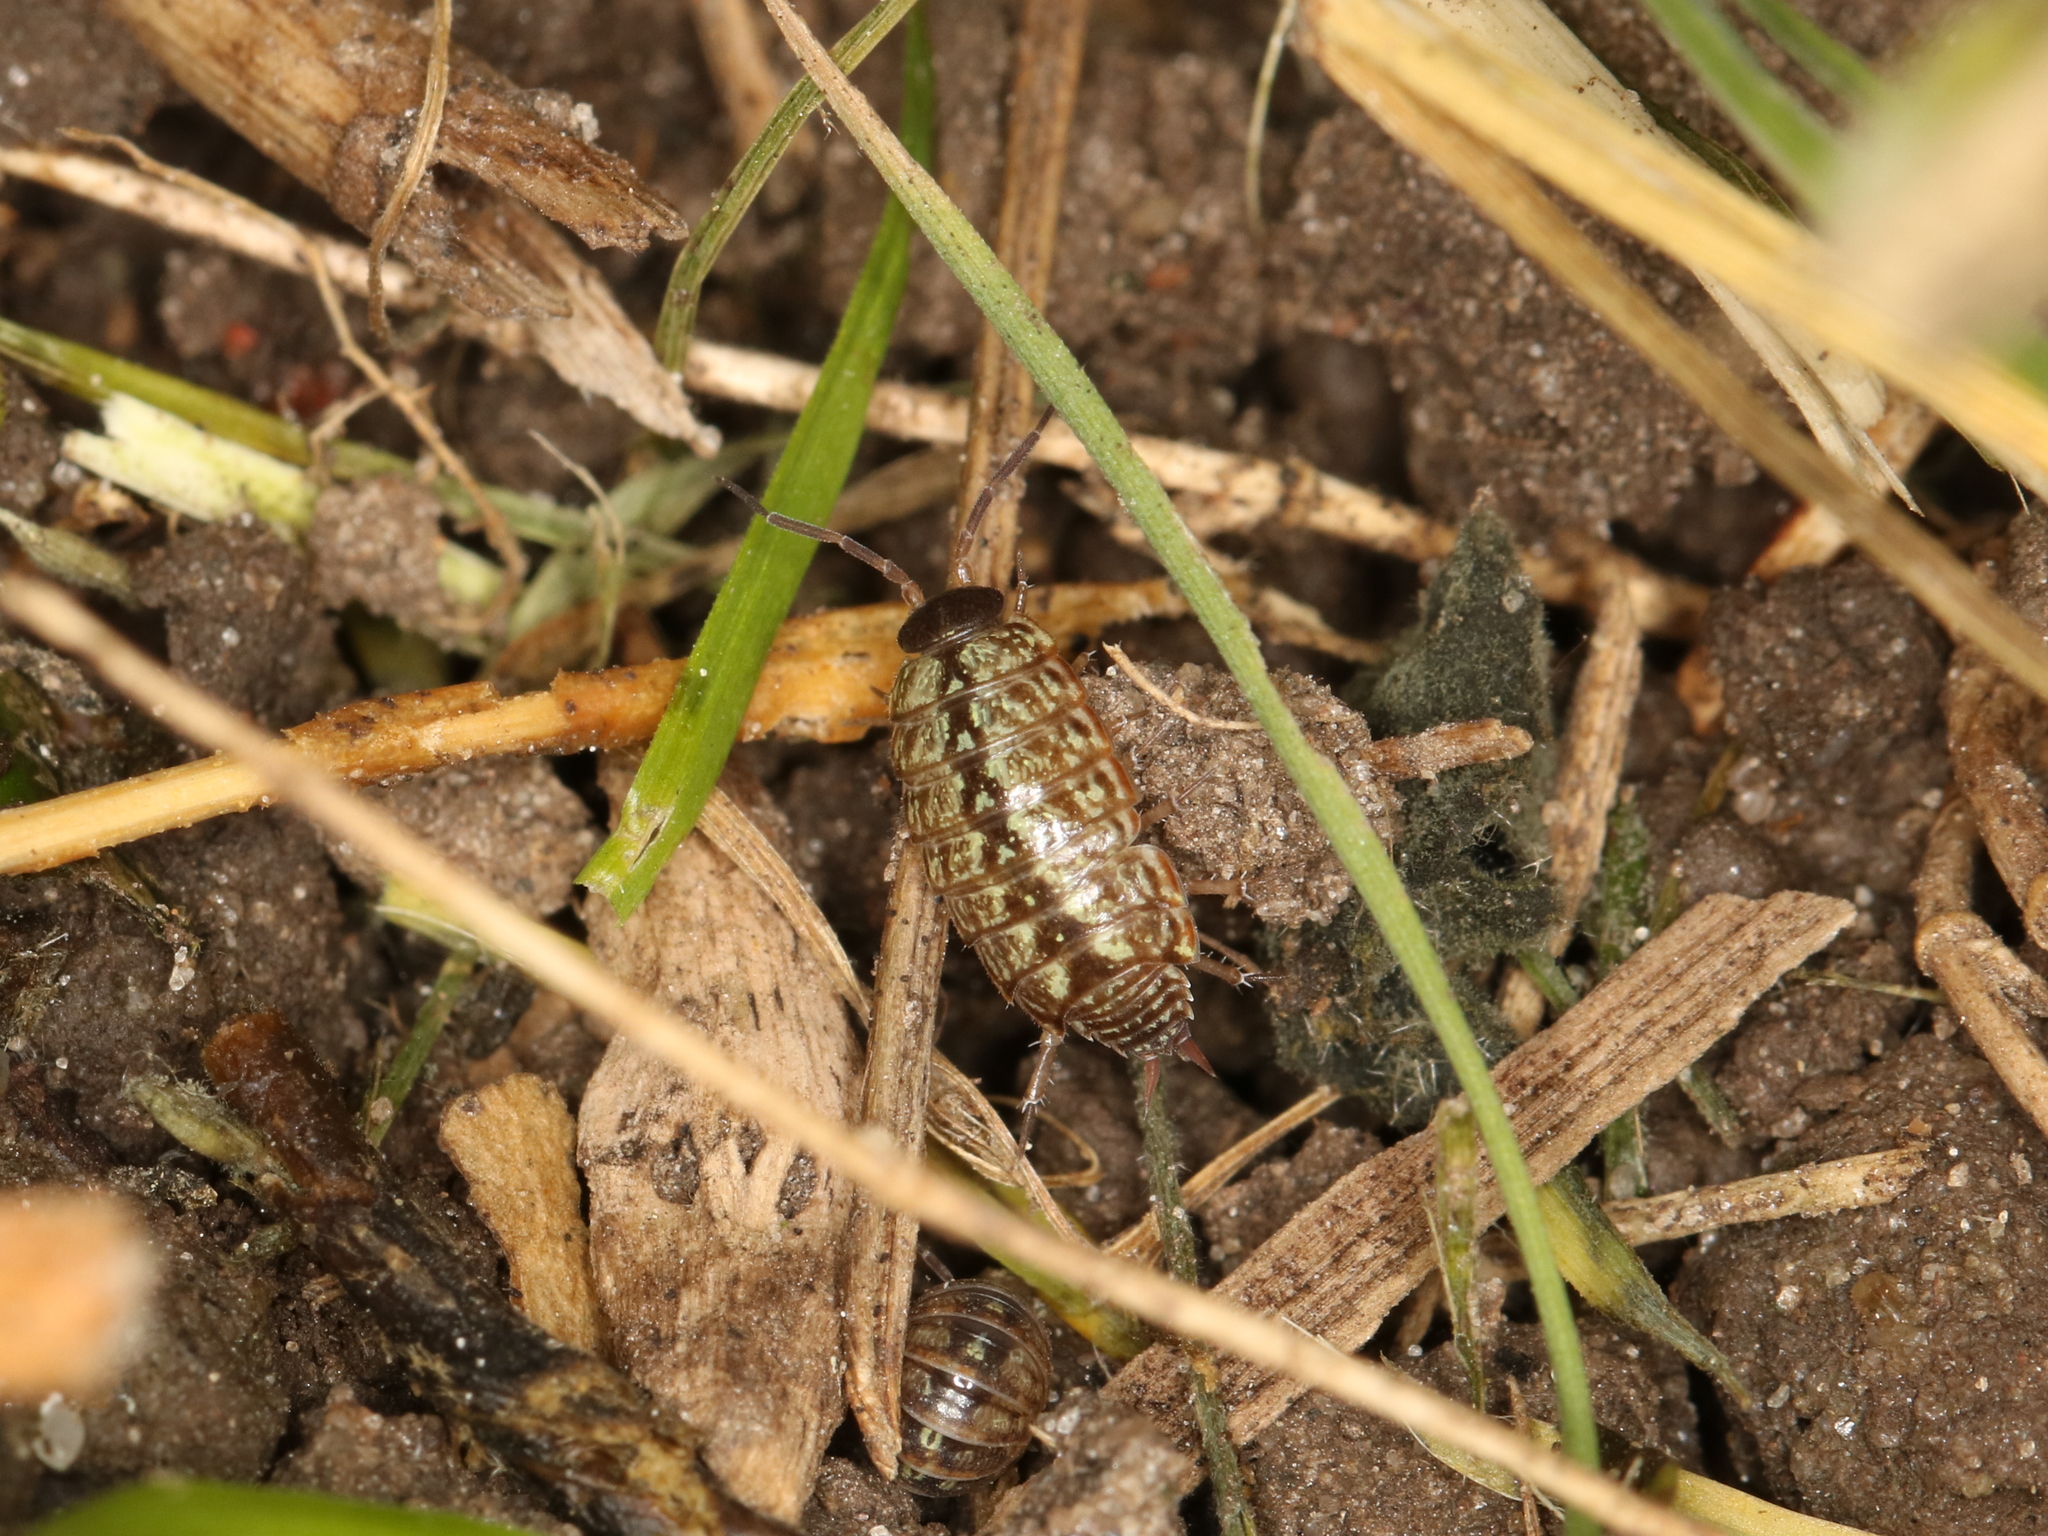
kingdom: Animalia
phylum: Arthropoda
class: Malacostraca
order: Isopoda
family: Philosciidae
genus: Philoscia
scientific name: Philoscia muscorum
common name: Common striped woodlouse
